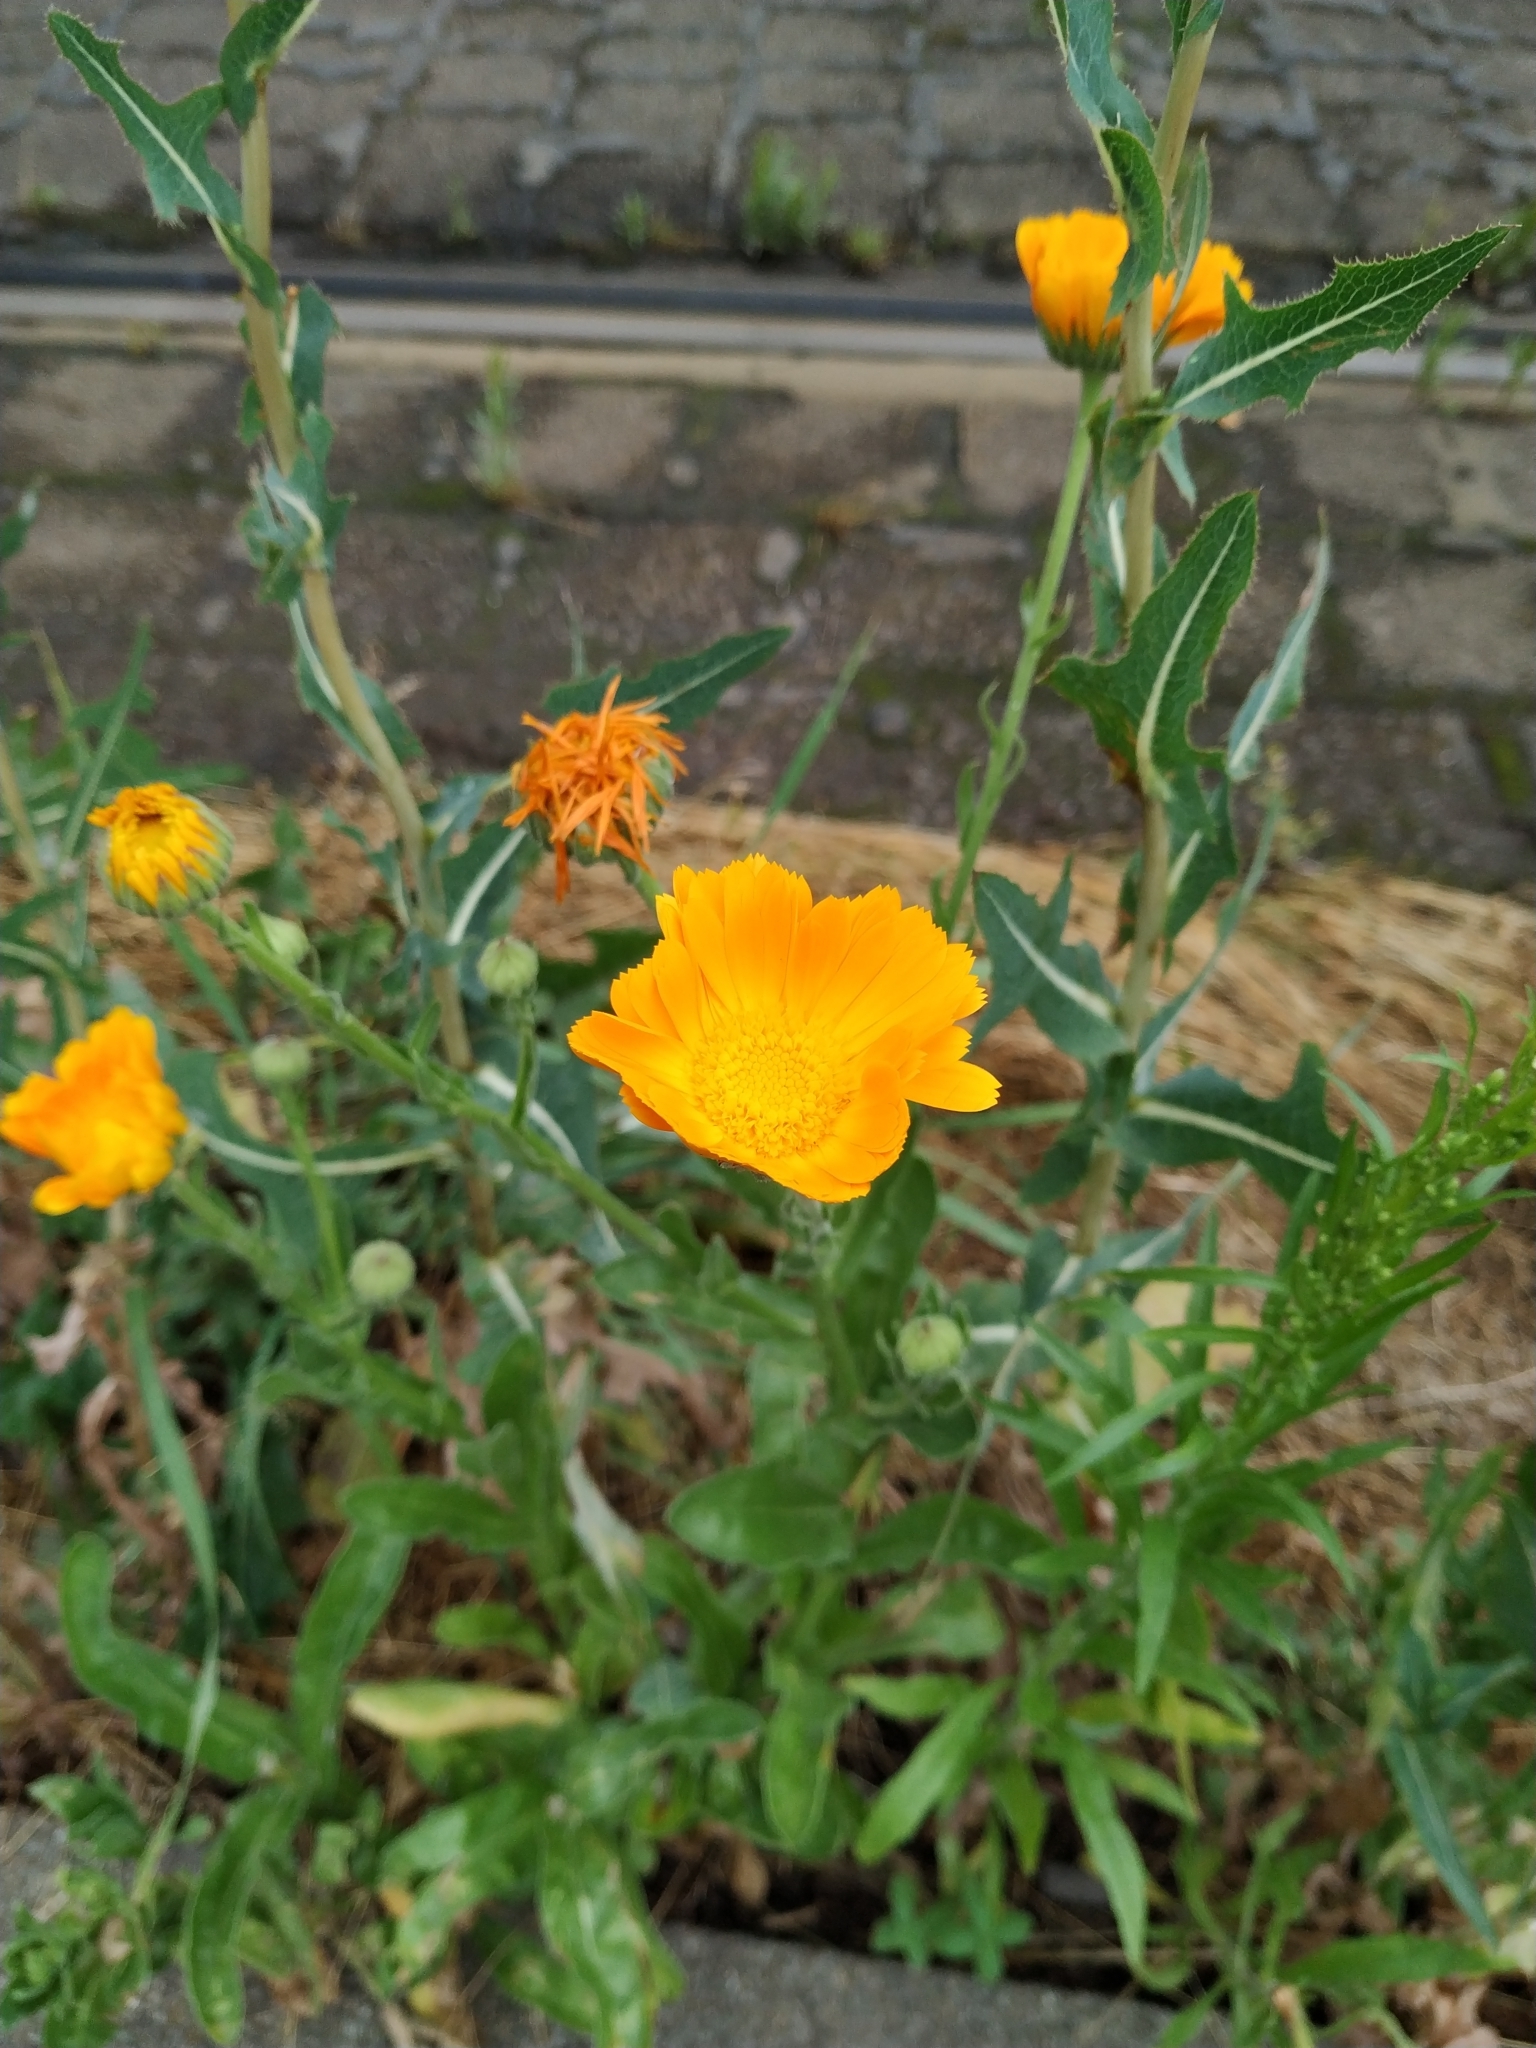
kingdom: Plantae
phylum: Tracheophyta
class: Magnoliopsida
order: Asterales
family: Asteraceae
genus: Calendula
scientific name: Calendula officinalis
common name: Pot marigold
